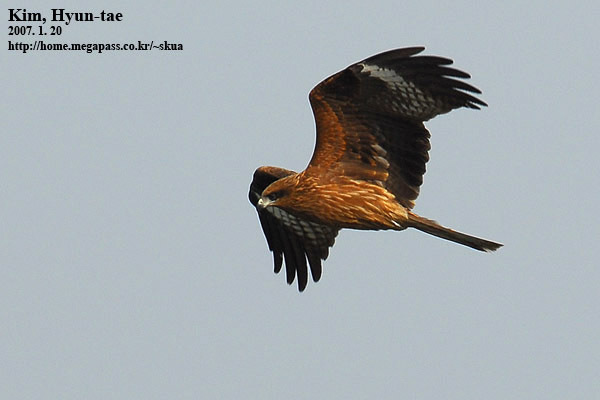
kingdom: Animalia
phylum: Chordata
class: Aves
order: Accipitriformes
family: Accipitridae
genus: Milvus
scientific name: Milvus migrans
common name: Black kite
